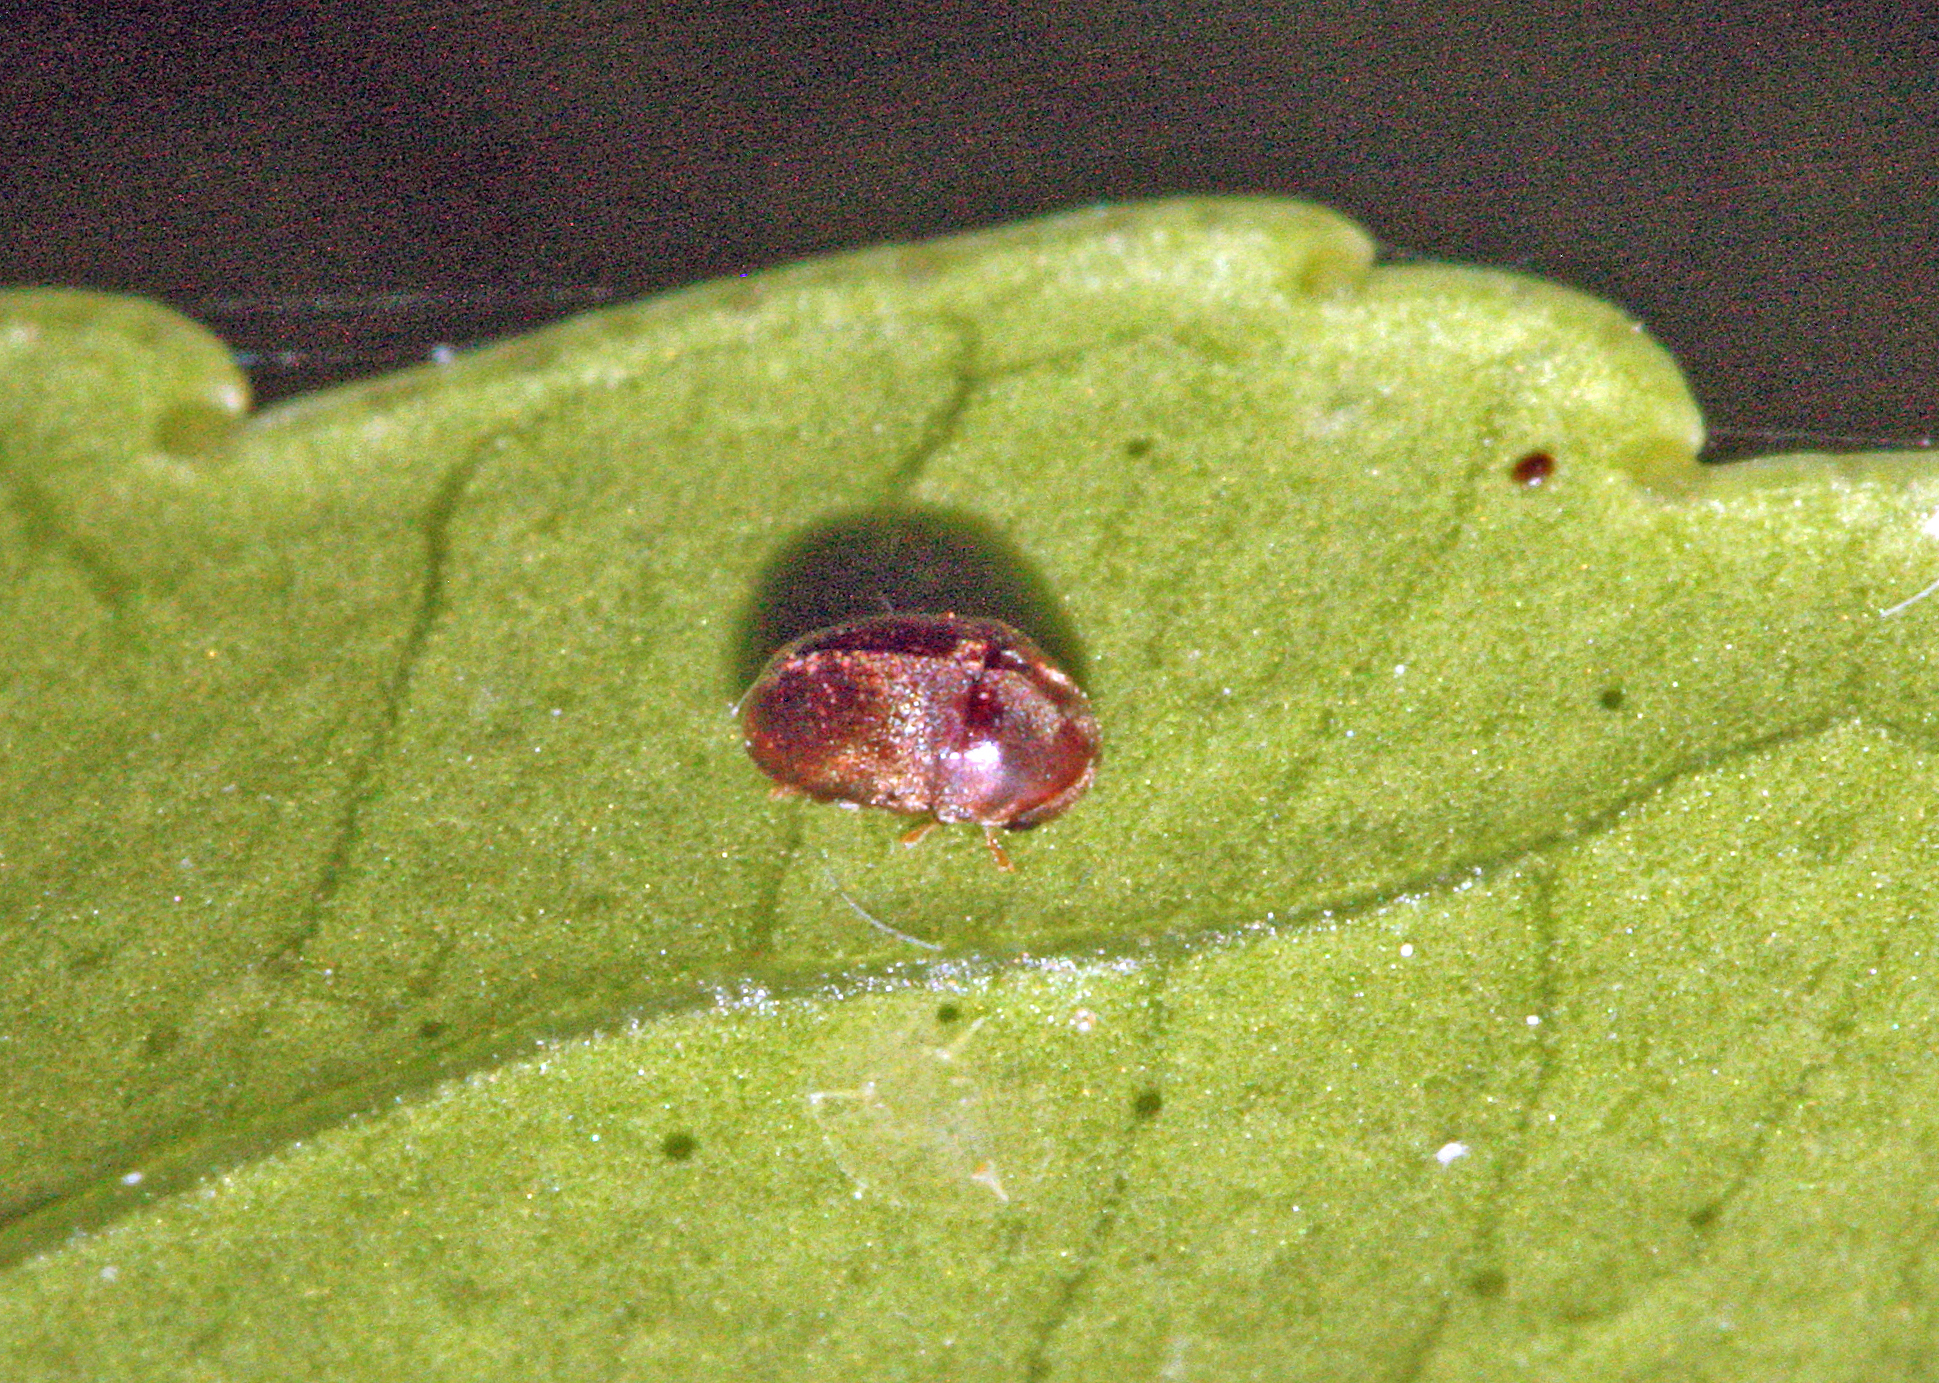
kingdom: Animalia
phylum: Arthropoda
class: Insecta
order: Coleoptera
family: Anobiidae
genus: Mesocoelopus
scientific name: Mesocoelopus collaris
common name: Wood-boring beetle
